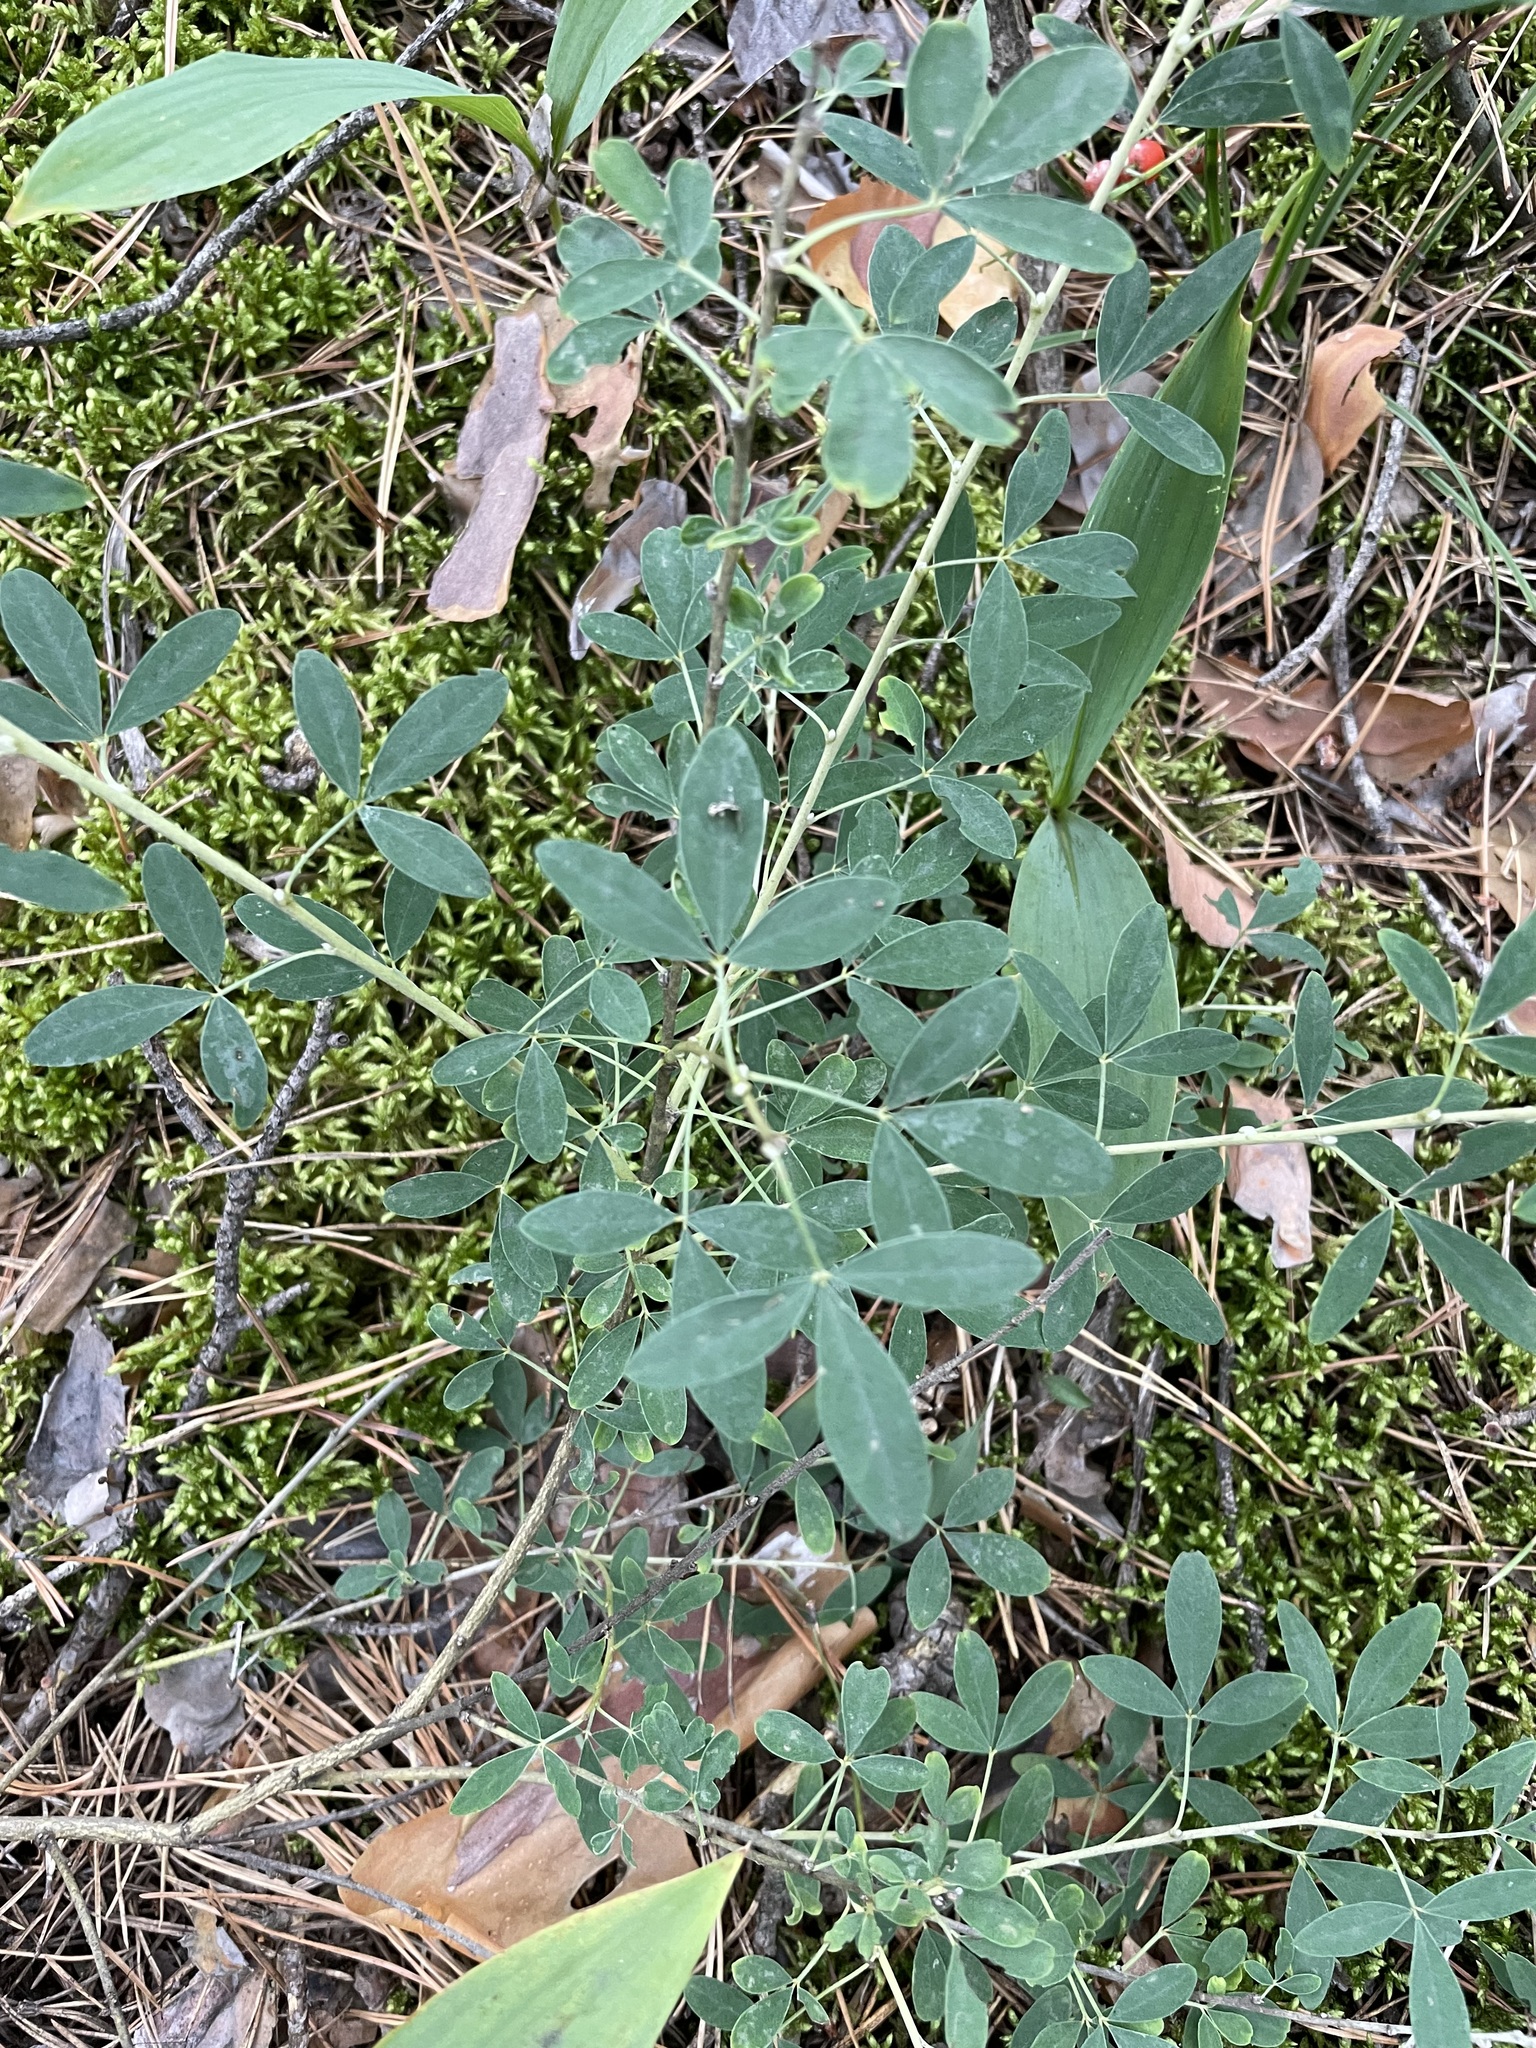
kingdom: Plantae
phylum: Tracheophyta
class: Magnoliopsida
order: Fabales
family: Fabaceae
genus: Chamaecytisus
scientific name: Chamaecytisus ruthenicus
